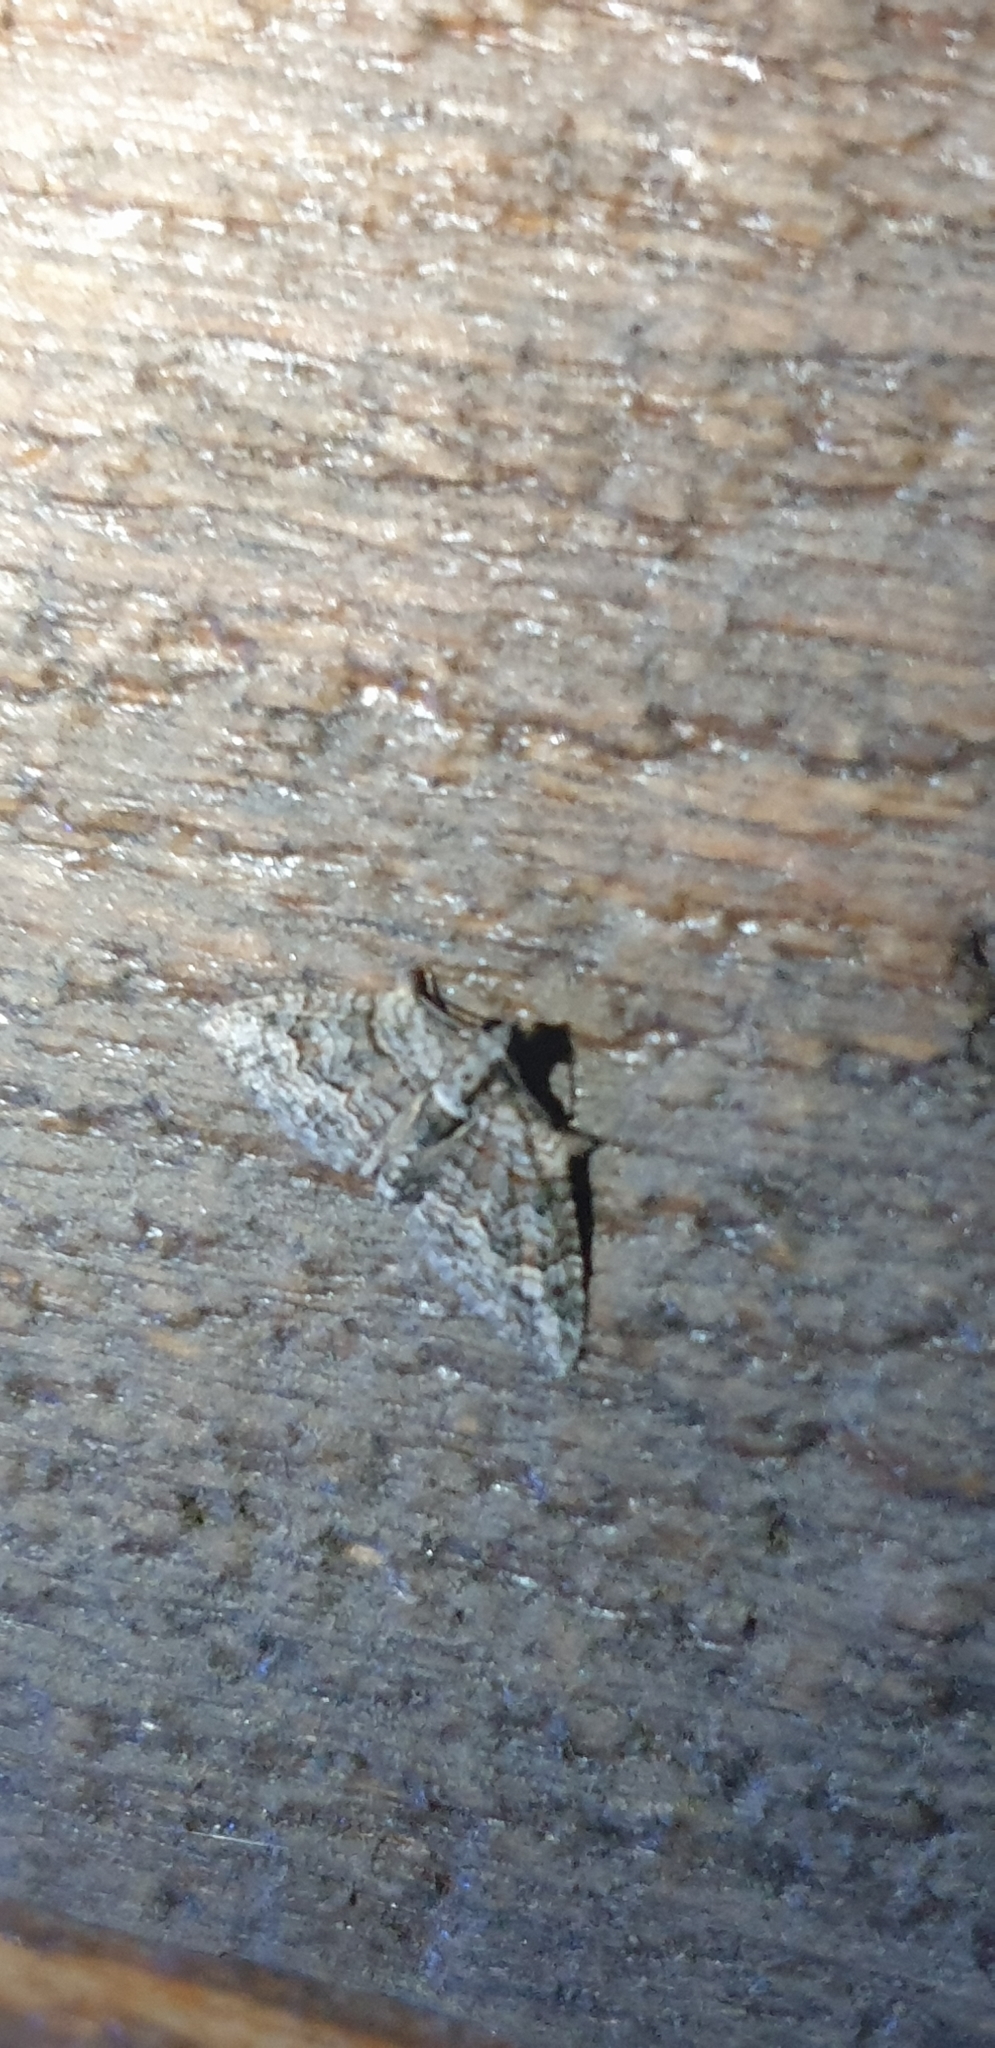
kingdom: Animalia
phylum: Arthropoda
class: Insecta
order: Lepidoptera
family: Geometridae
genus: Phrissogonus
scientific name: Phrissogonus laticostata
